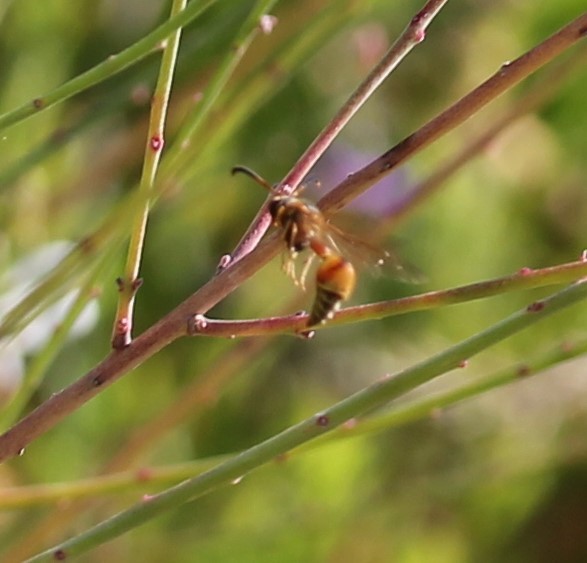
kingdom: Animalia
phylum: Arthropoda
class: Insecta
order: Hymenoptera
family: Vespidae
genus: Eumenes
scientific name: Eumenes bollii
